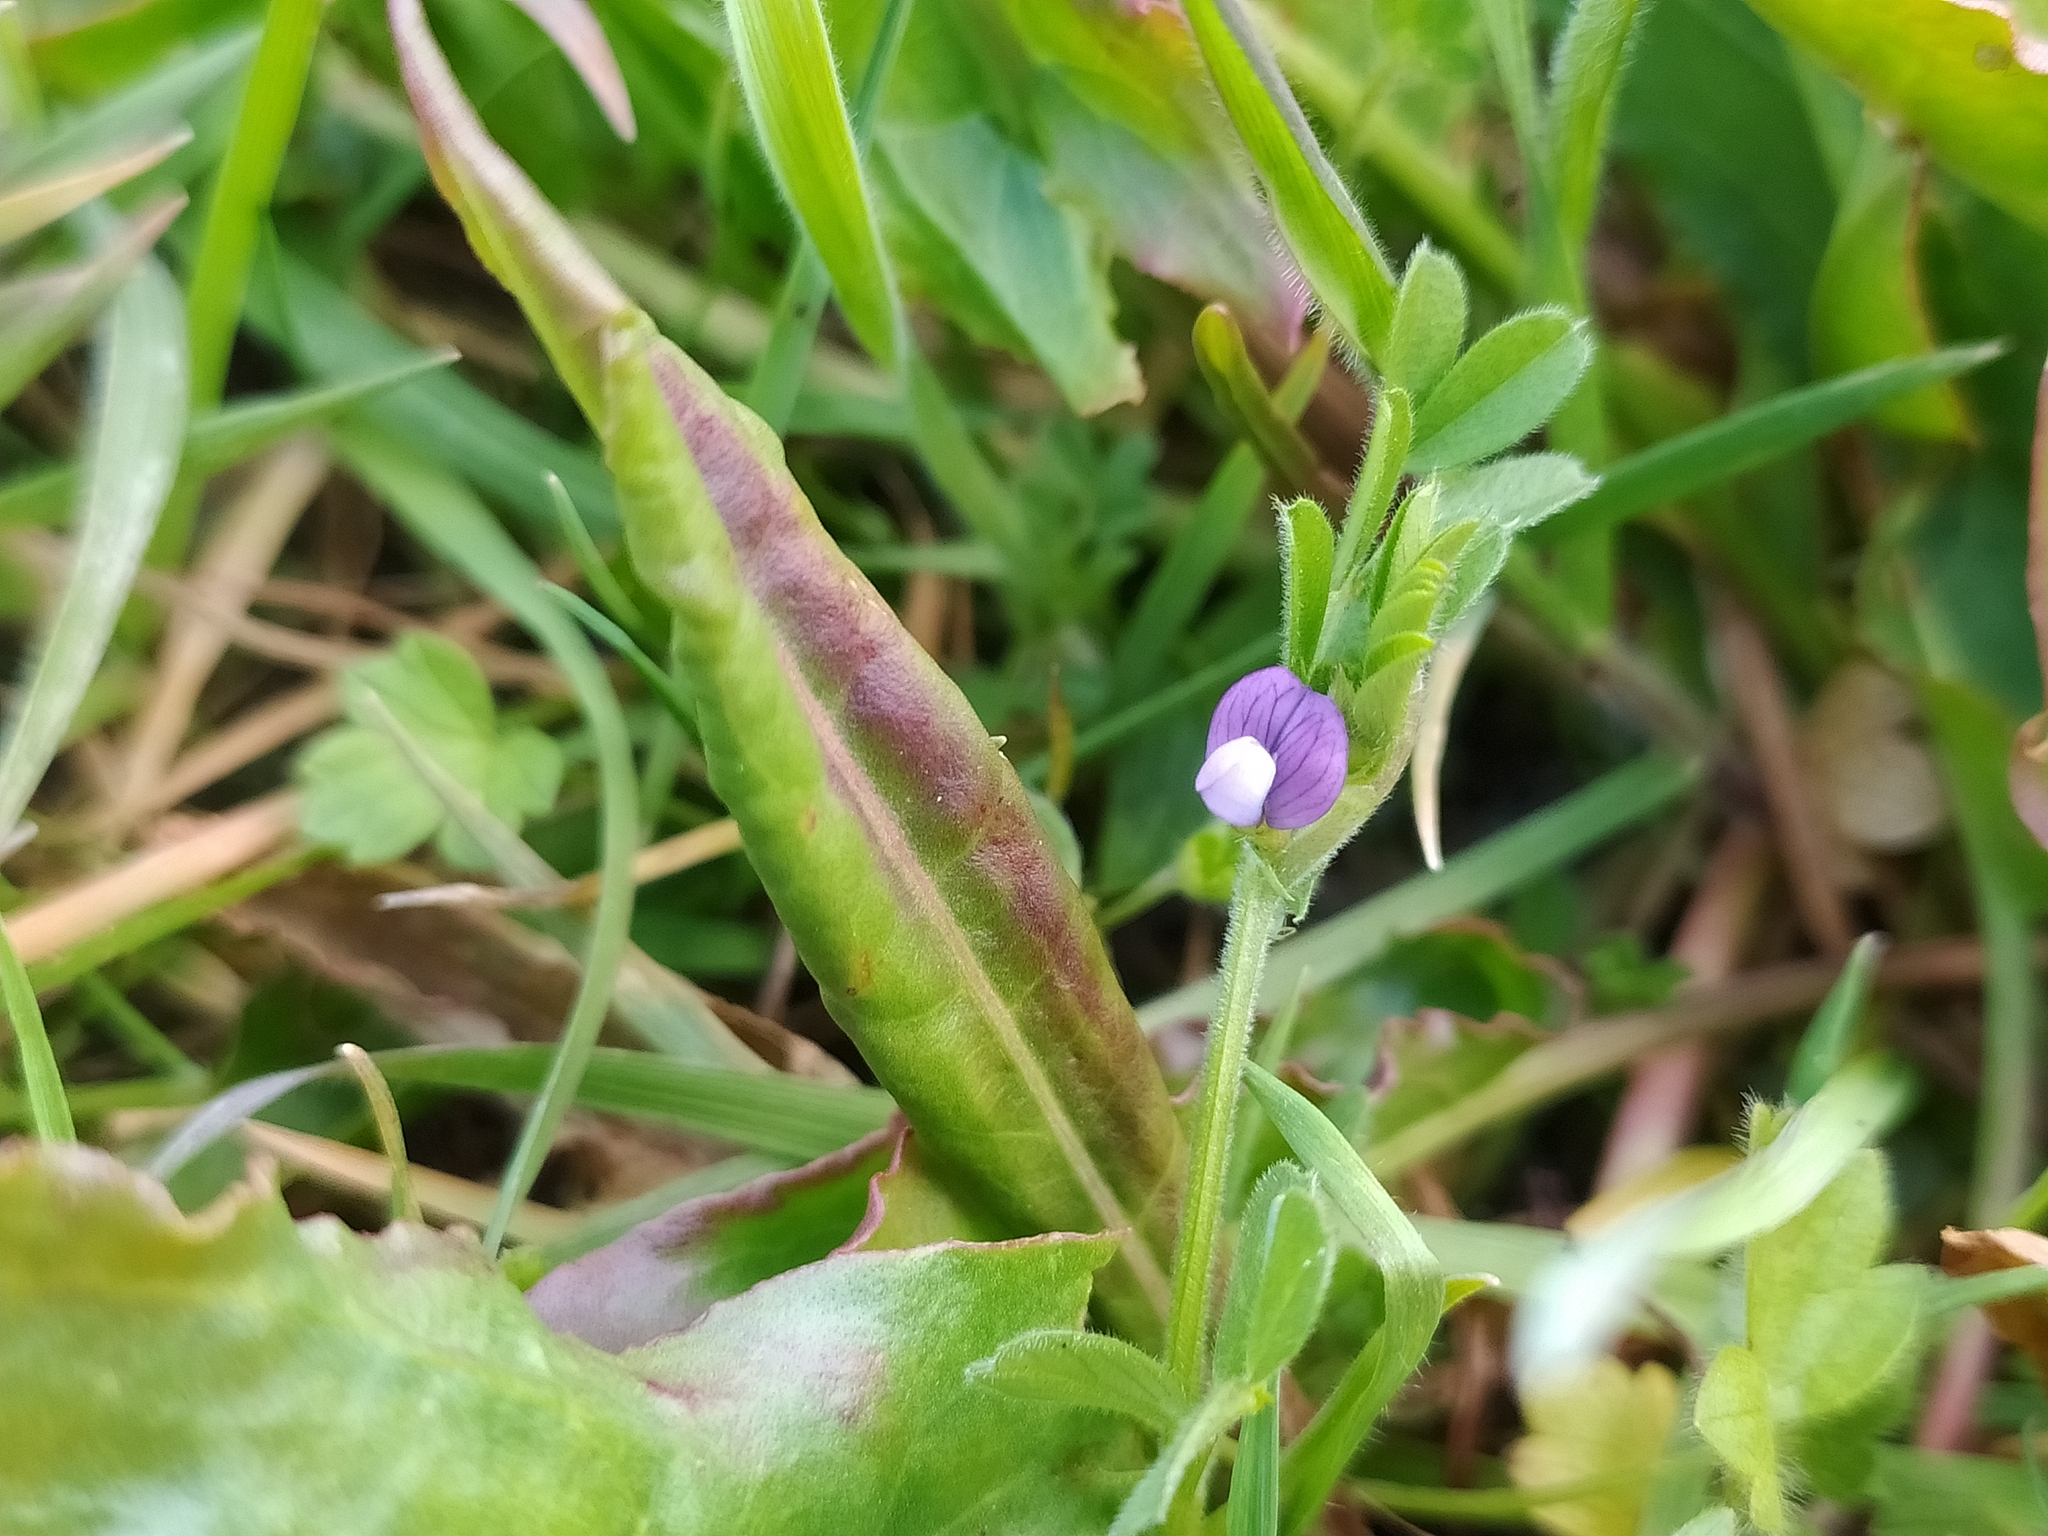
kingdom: Plantae
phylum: Tracheophyta
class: Magnoliopsida
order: Fabales
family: Fabaceae
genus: Vicia
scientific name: Vicia lathyroides
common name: Spring vetch
